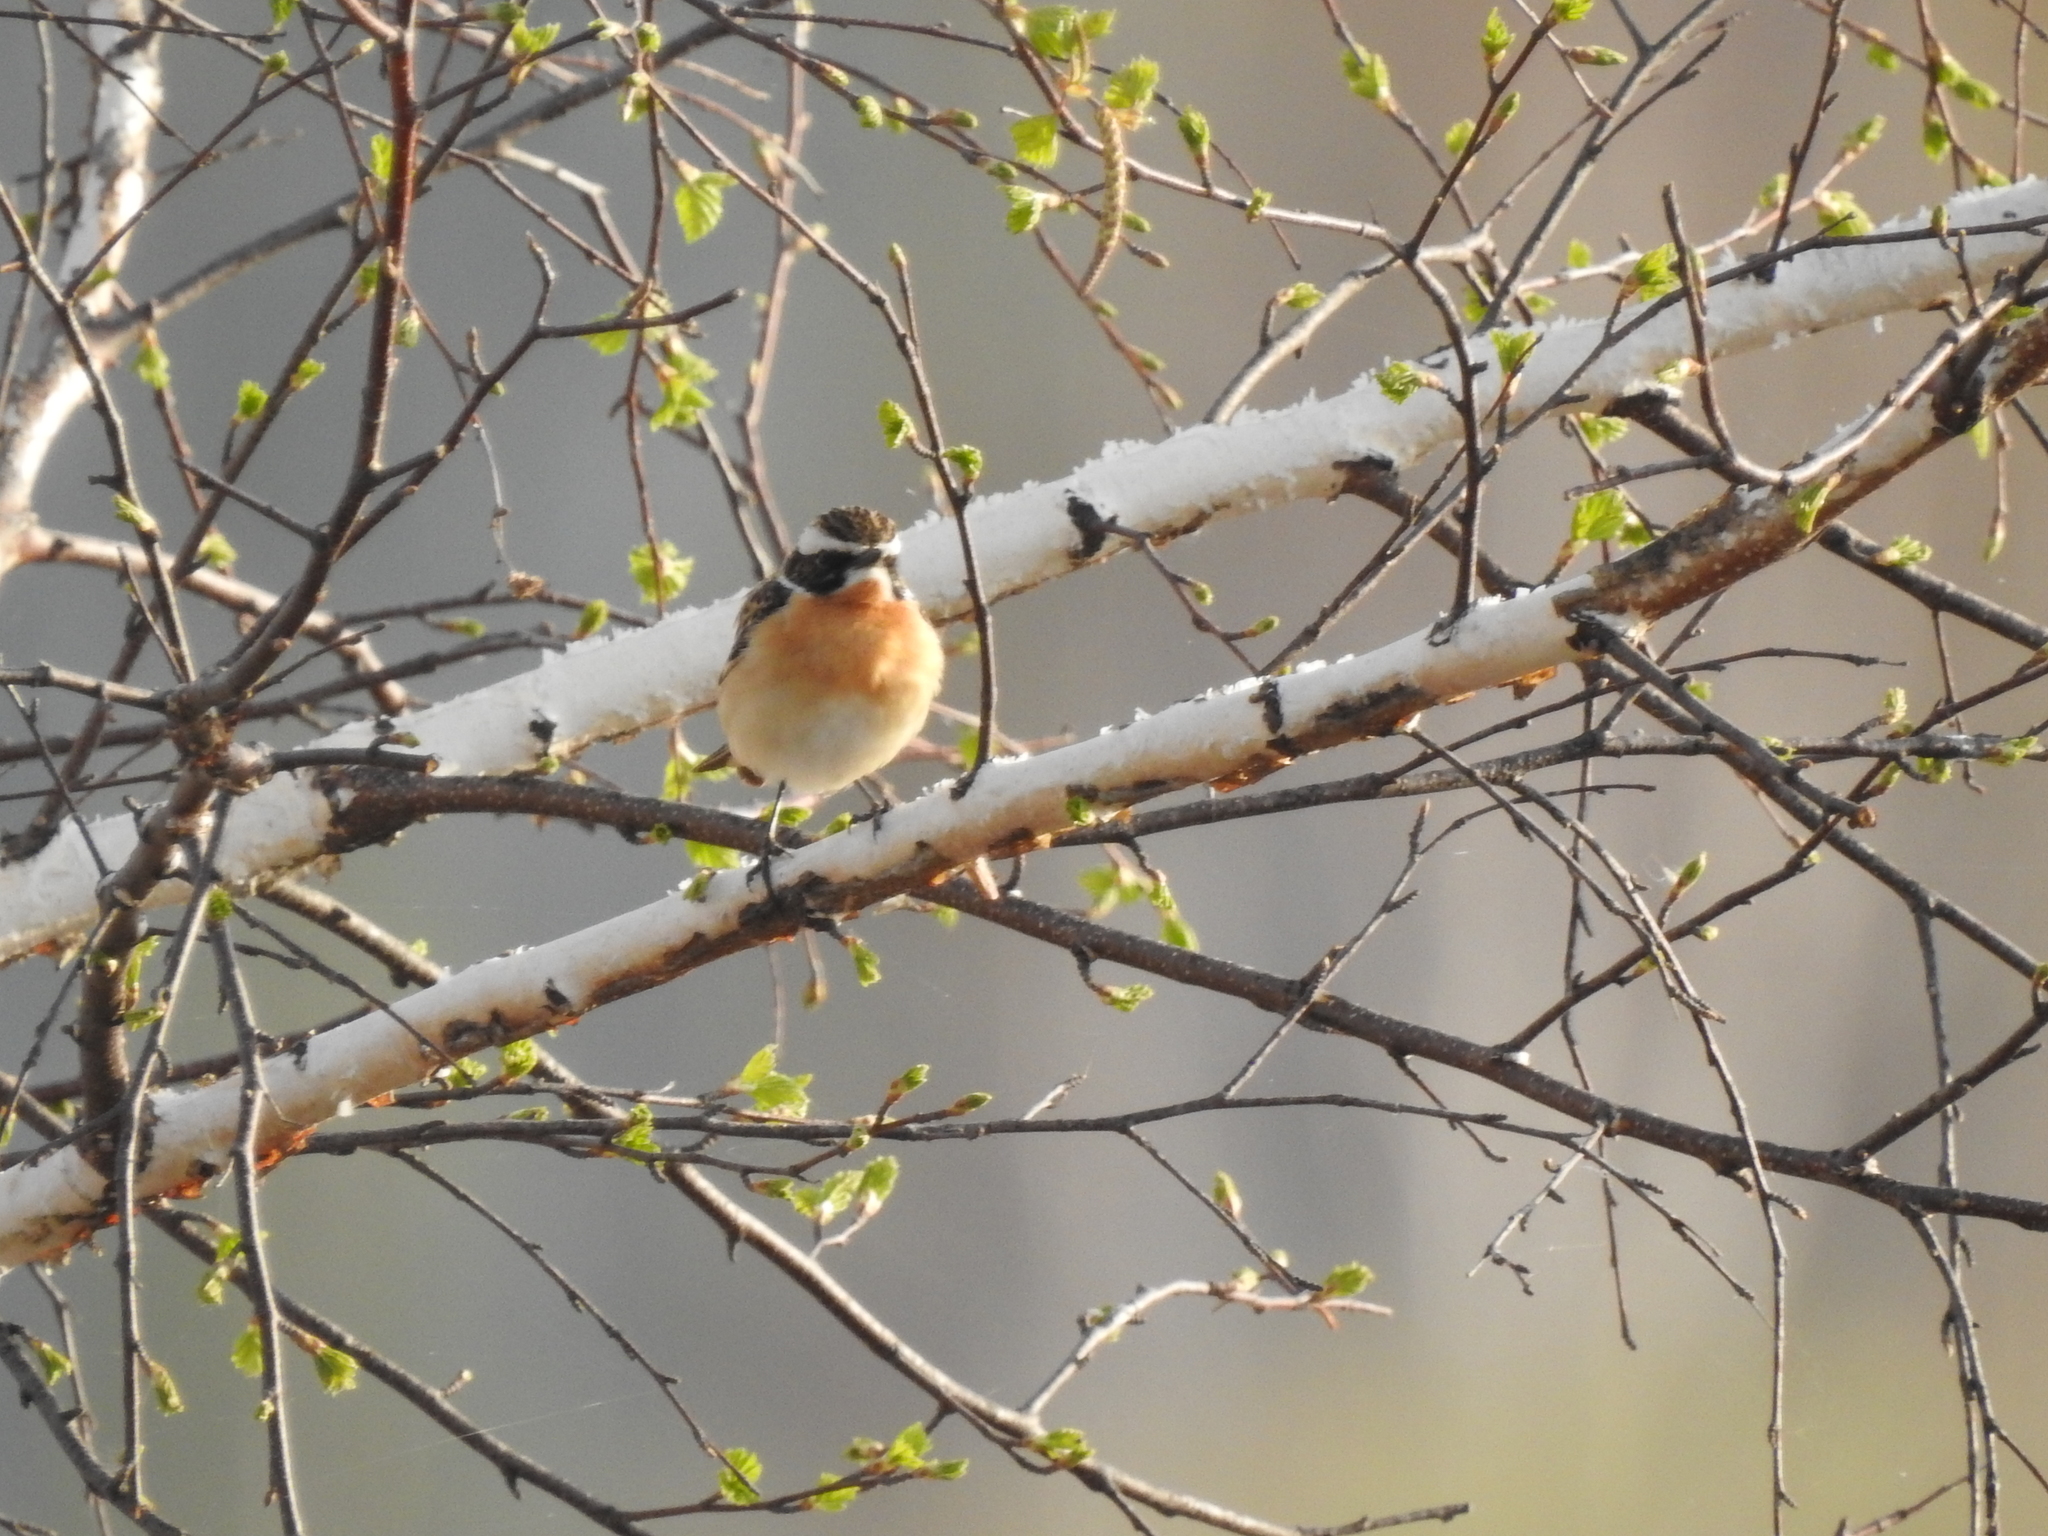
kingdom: Animalia
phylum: Chordata
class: Aves
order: Passeriformes
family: Muscicapidae
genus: Saxicola
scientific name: Saxicola rubetra
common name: Whinchat
